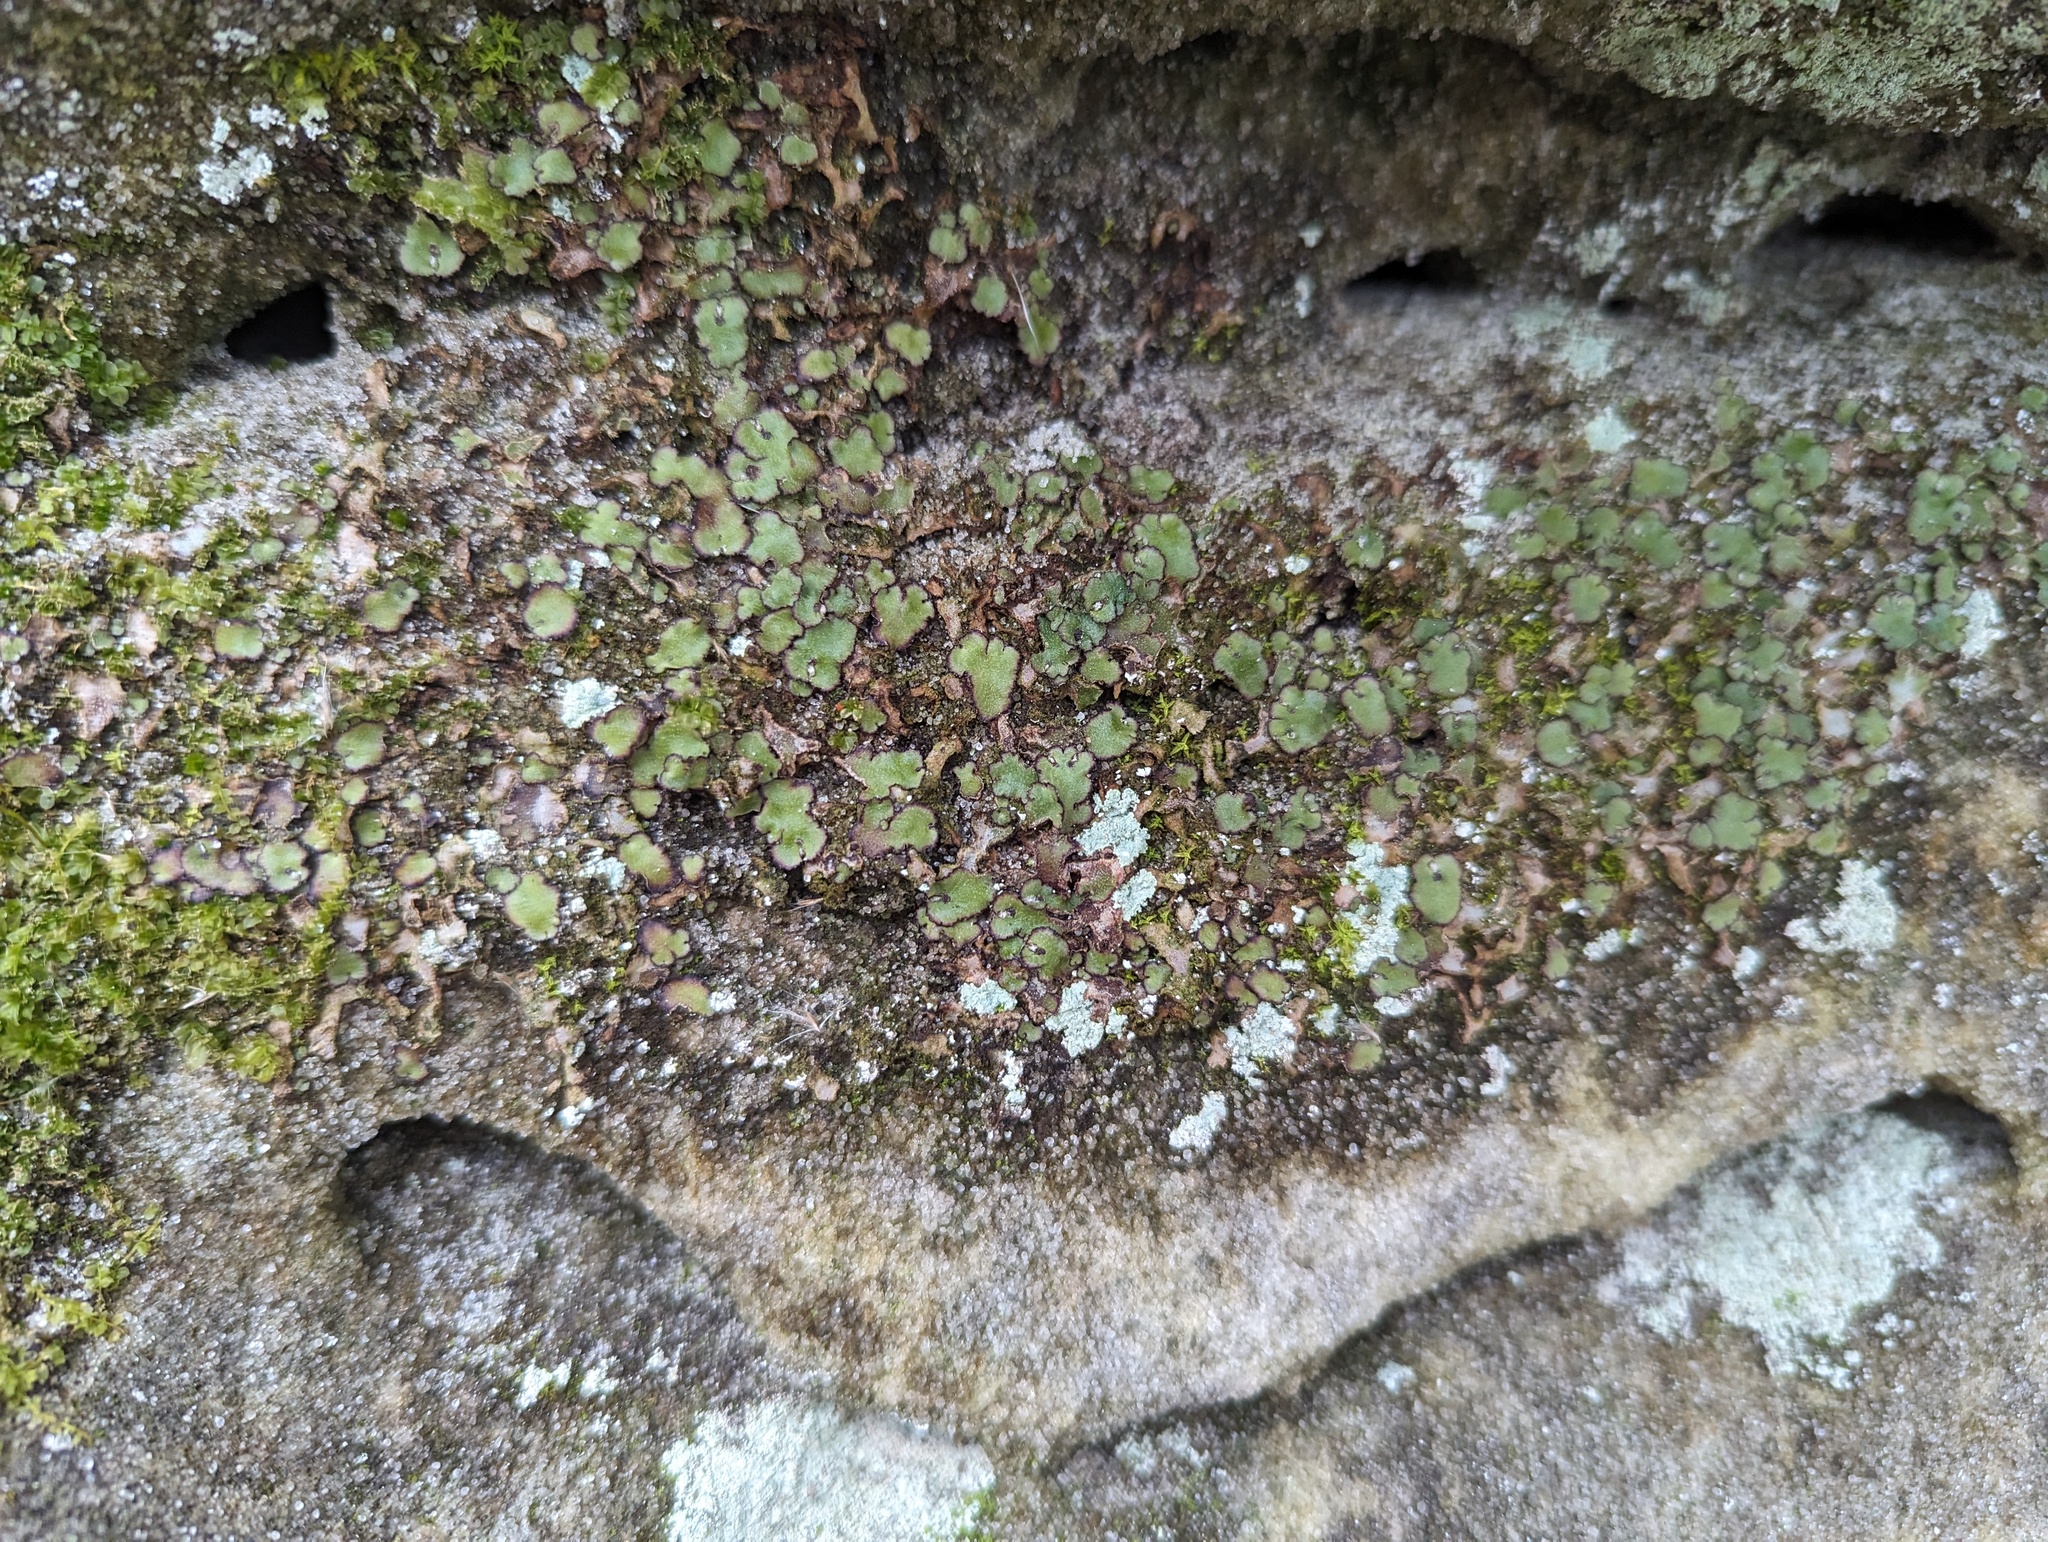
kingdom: Plantae
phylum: Marchantiophyta
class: Marchantiopsida
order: Marchantiales
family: Aytoniaceae
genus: Reboulia
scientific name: Reboulia hemisphaerica
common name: Purple-margined liverwort
